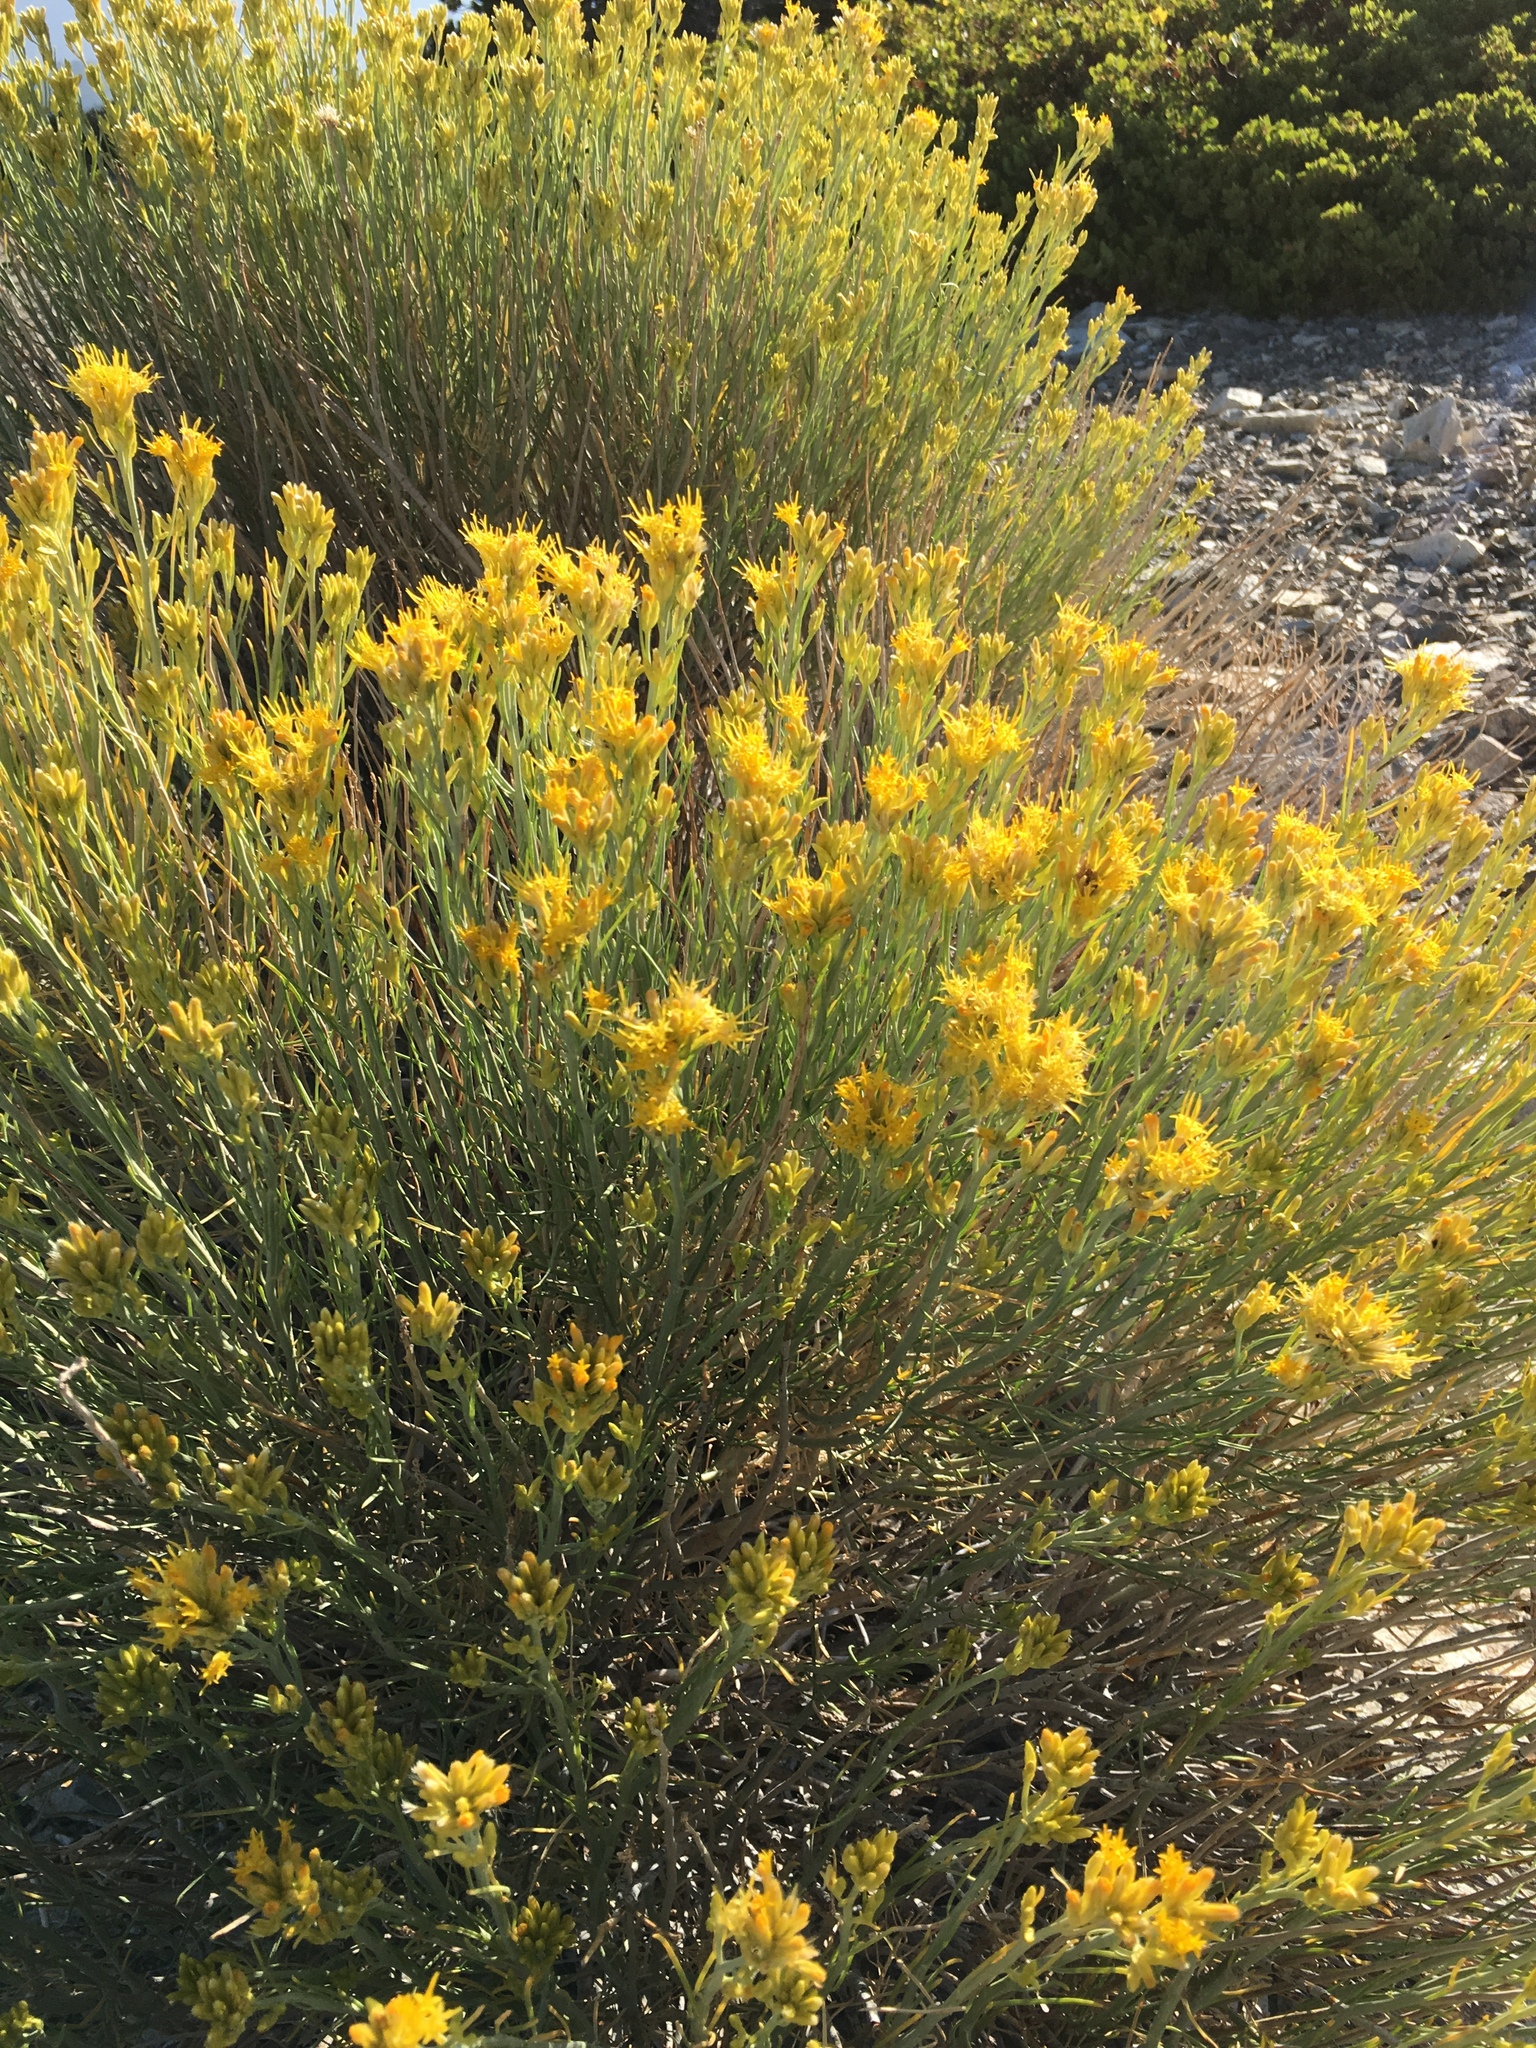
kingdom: Plantae
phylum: Tracheophyta
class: Magnoliopsida
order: Asterales
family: Asteraceae
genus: Ericameria
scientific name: Ericameria nauseosa
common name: Rubber rabbitbrush
